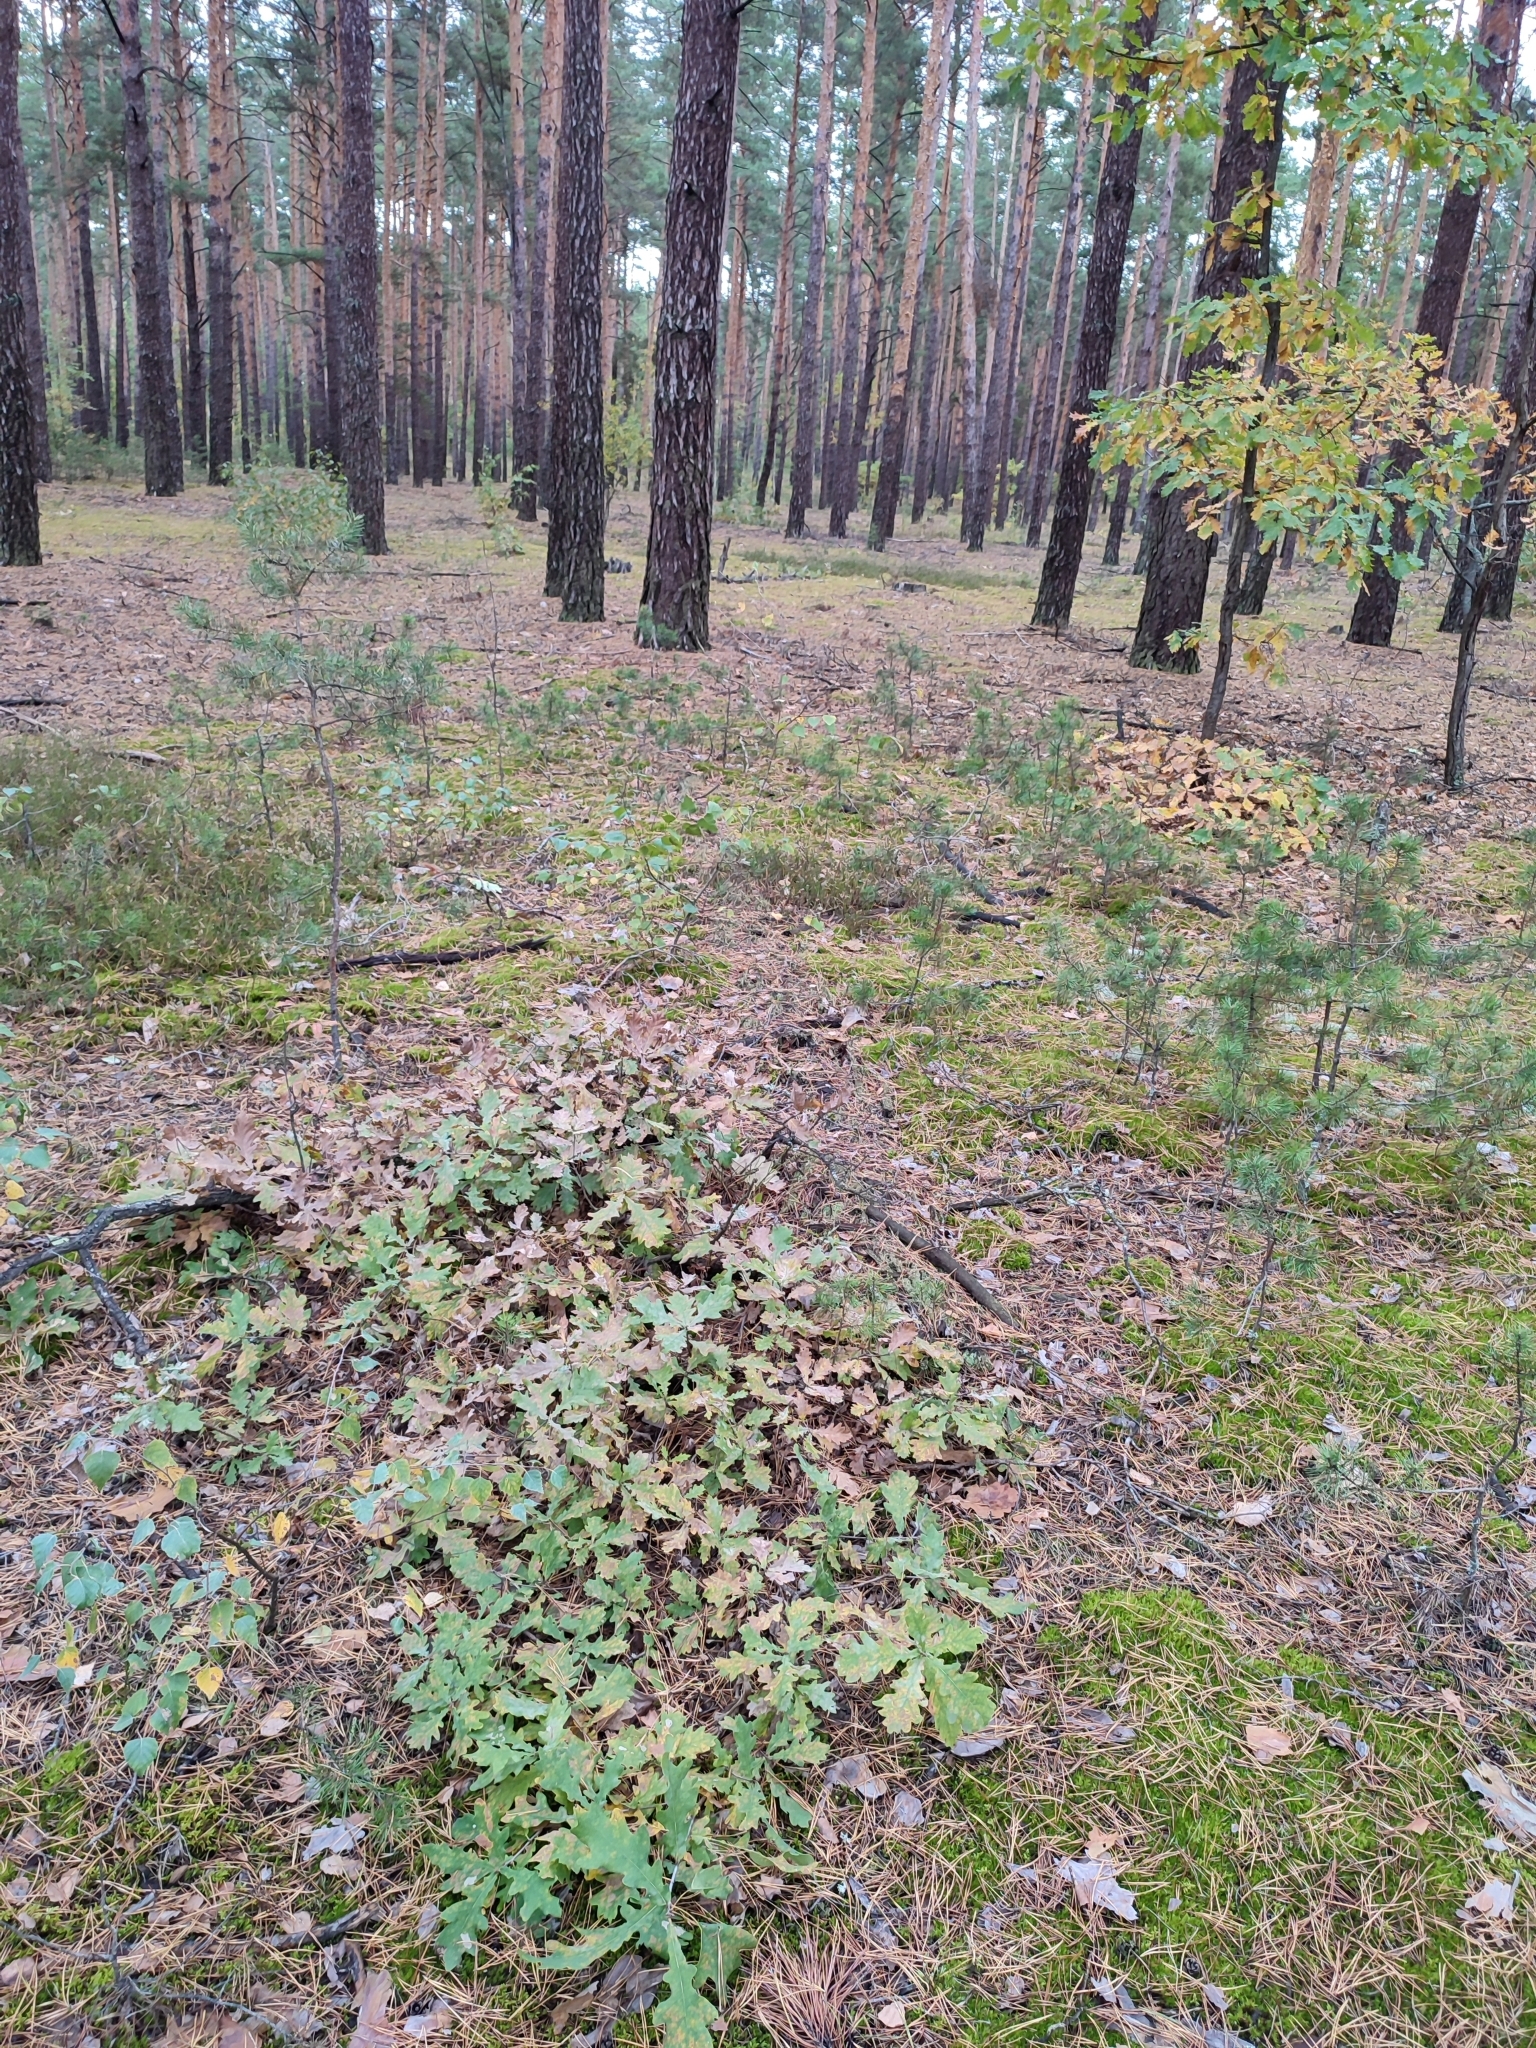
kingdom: Plantae
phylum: Tracheophyta
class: Magnoliopsida
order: Fagales
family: Fagaceae
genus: Quercus
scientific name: Quercus robur
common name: Pedunculate oak
